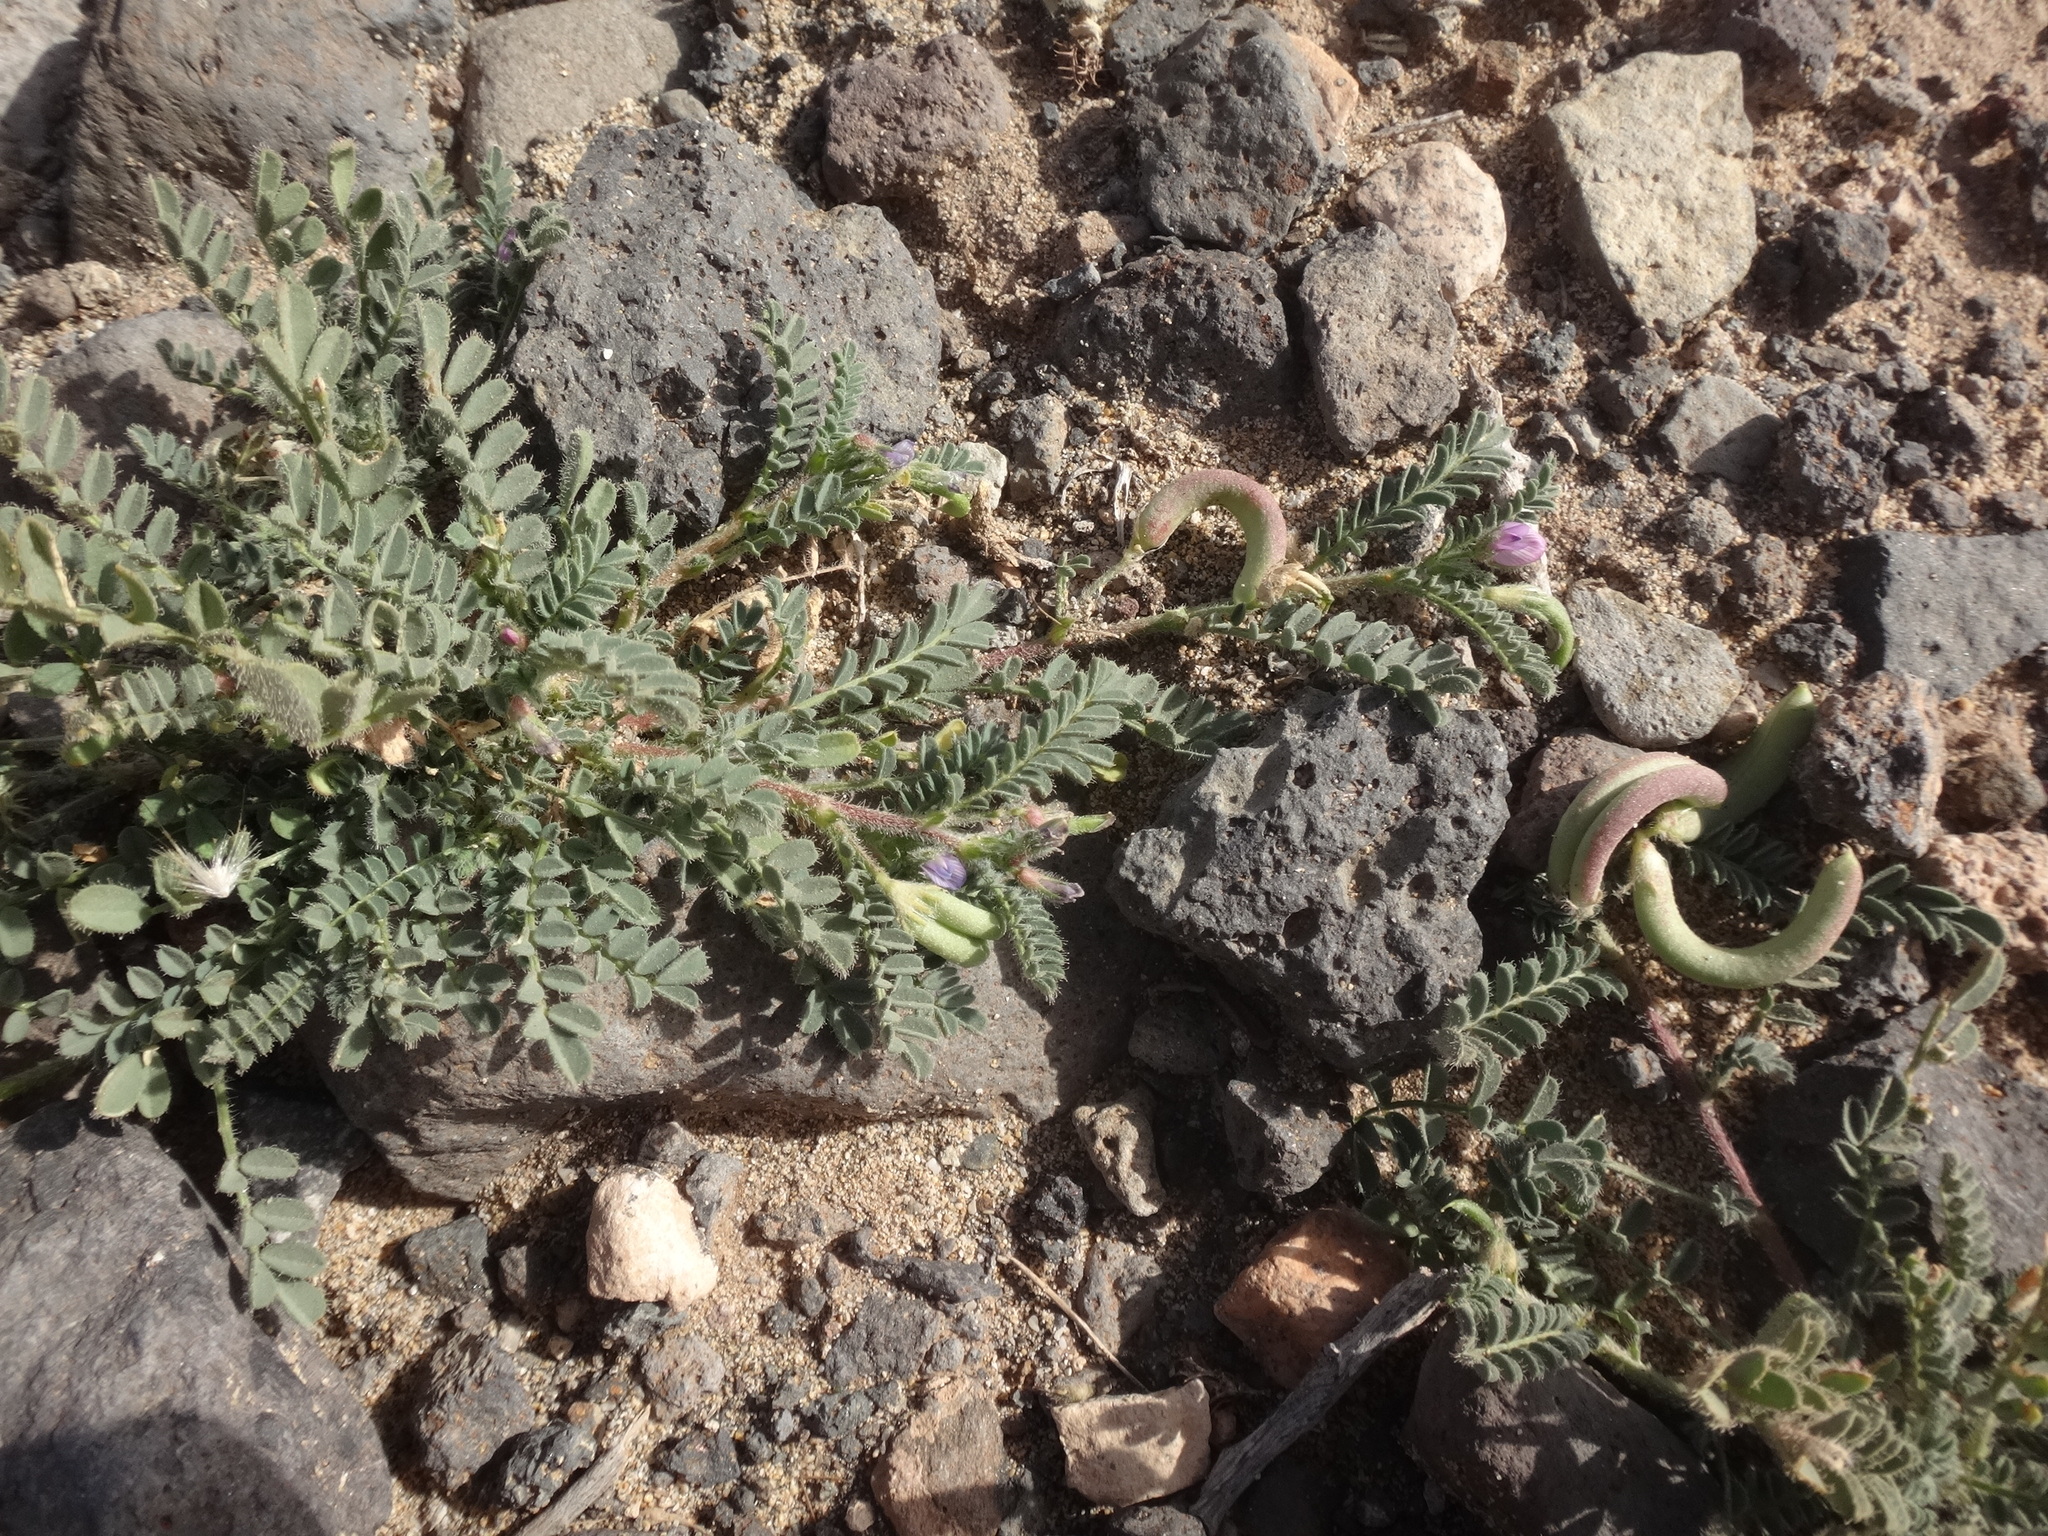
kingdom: Plantae
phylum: Tracheophyta
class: Magnoliopsida
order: Fabales
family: Fabaceae
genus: Astragalus
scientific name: Astragalus mareoticus
